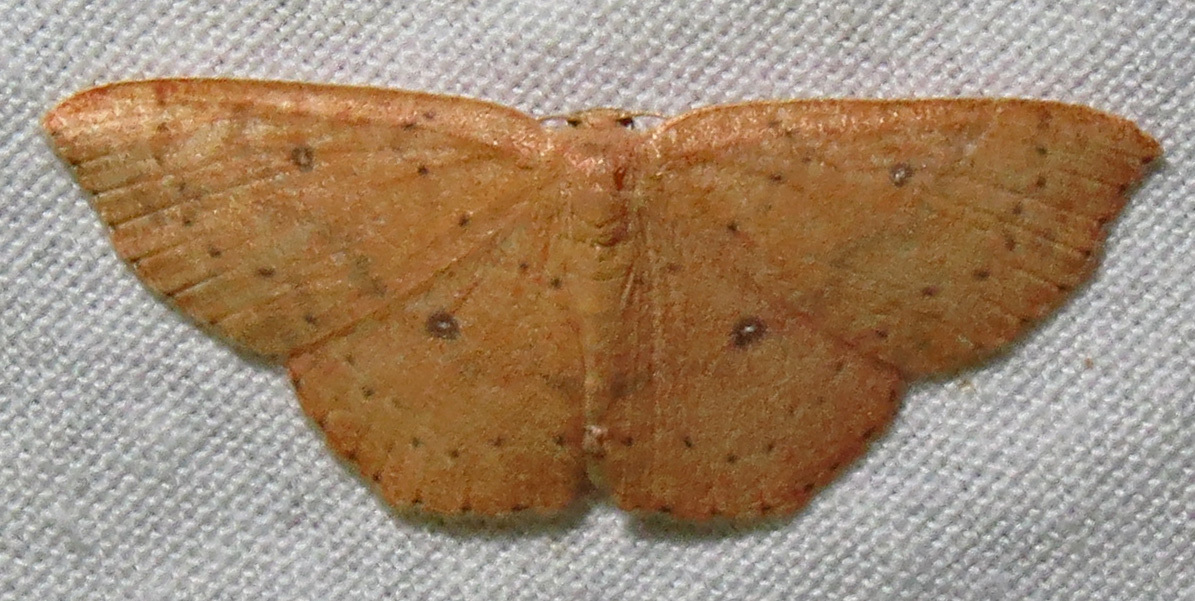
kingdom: Animalia
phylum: Arthropoda
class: Insecta
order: Lepidoptera
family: Geometridae
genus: Cyclophora
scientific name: Cyclophora packardi
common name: Packard's wave
